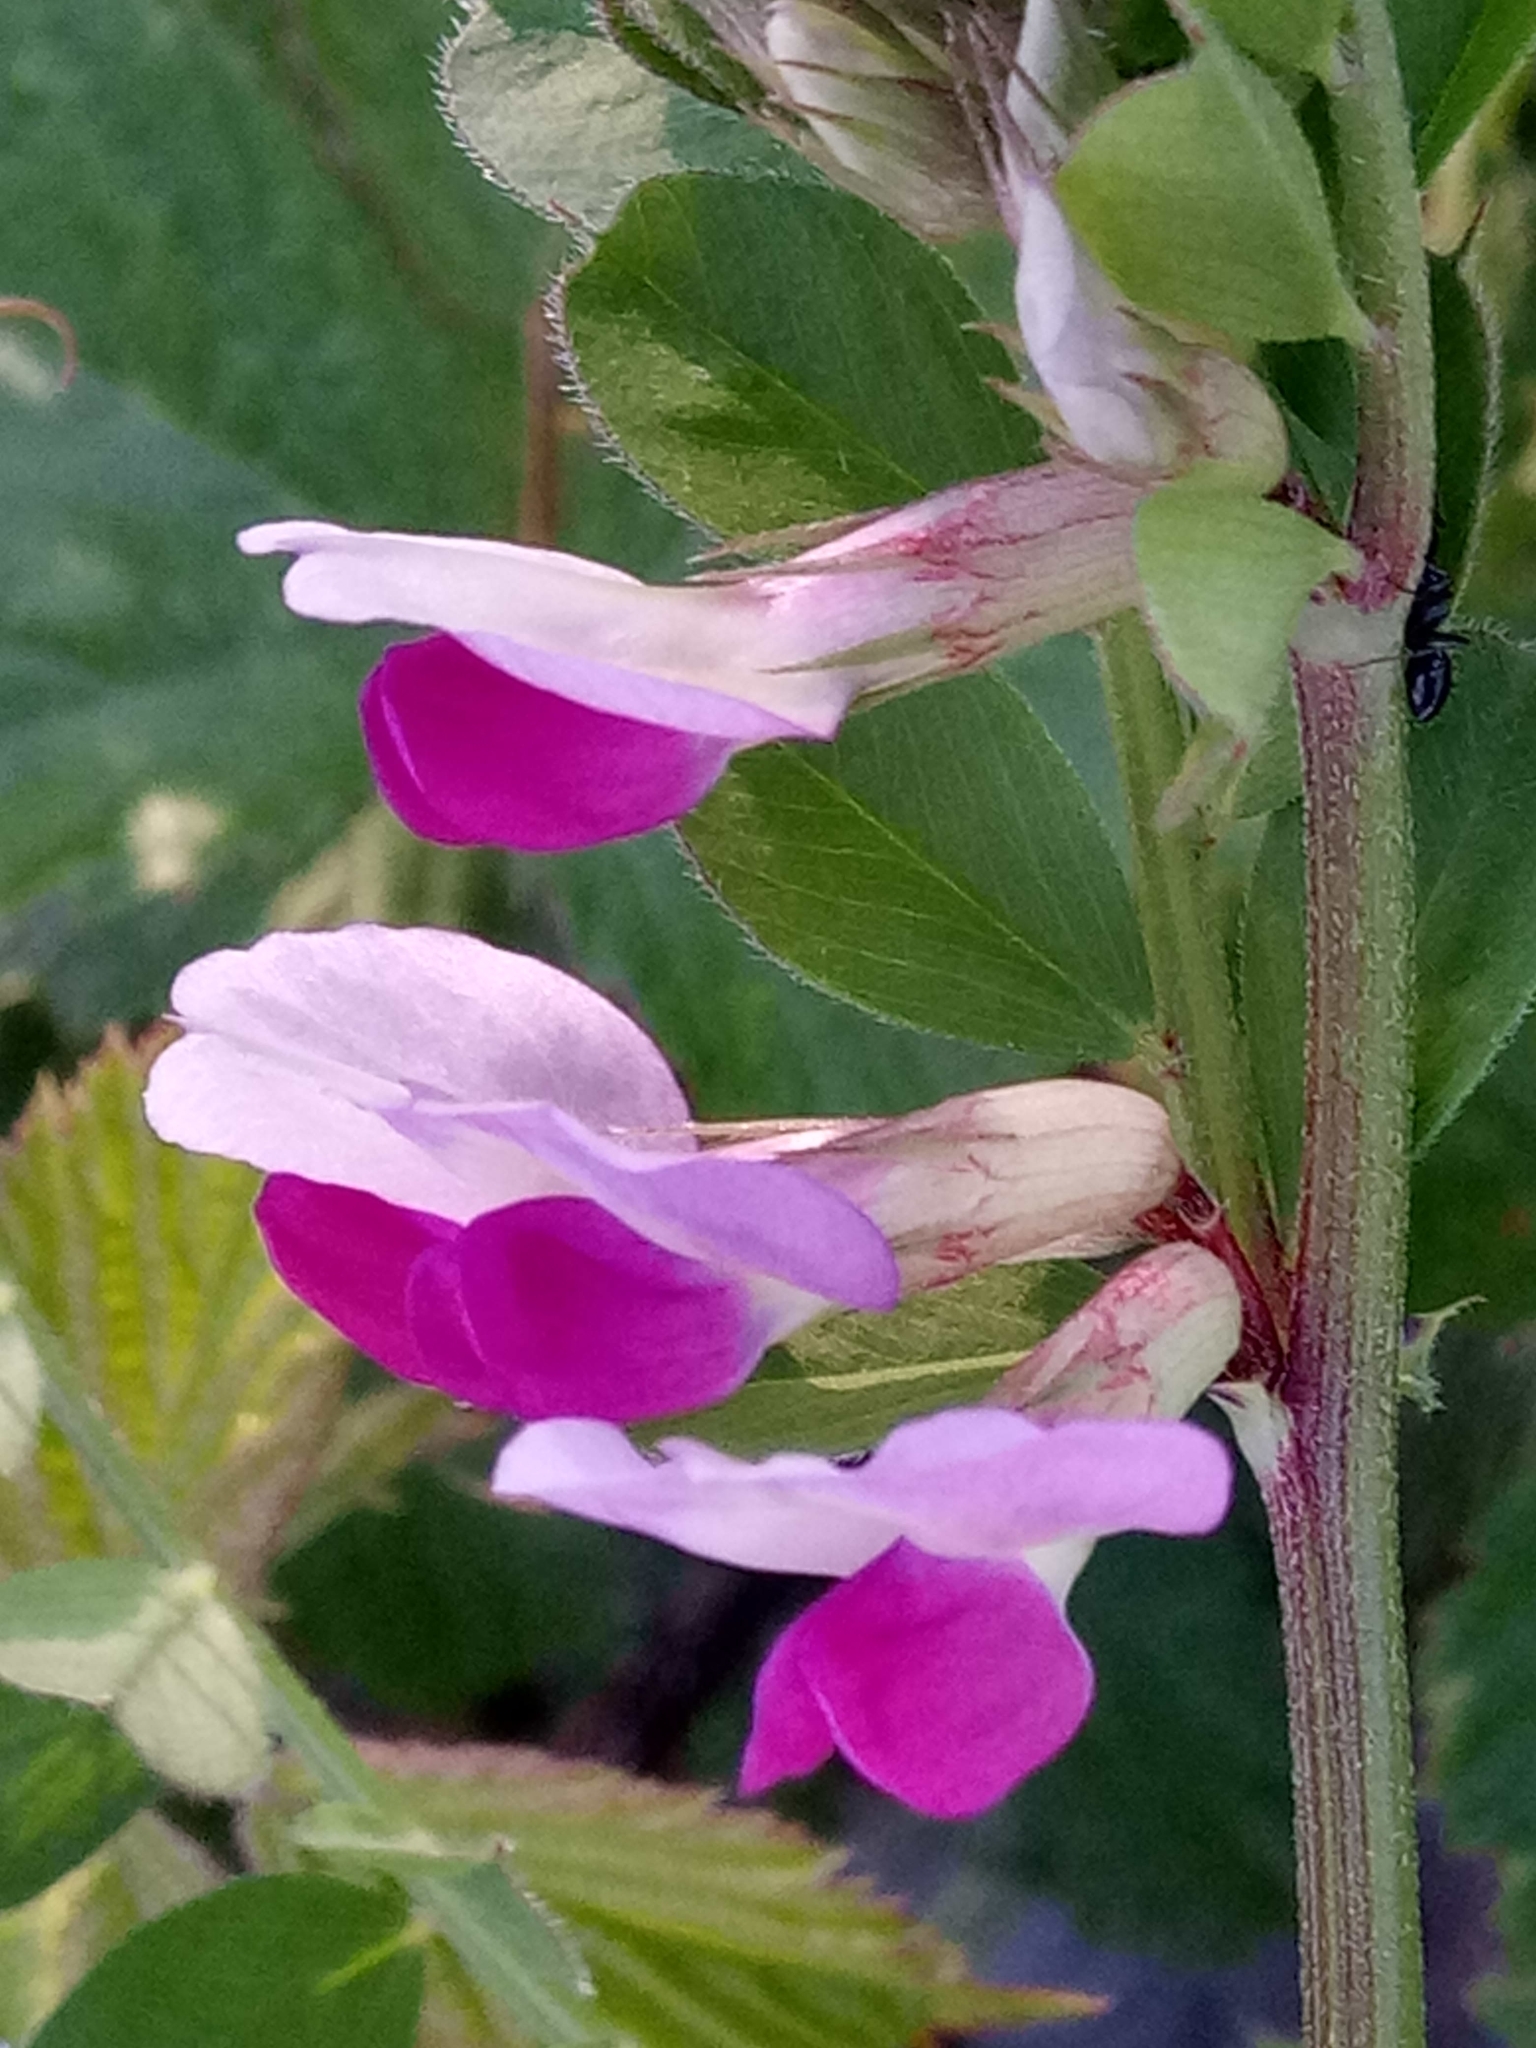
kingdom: Plantae
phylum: Tracheophyta
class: Magnoliopsida
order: Fabales
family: Fabaceae
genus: Vicia
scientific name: Vicia sativa
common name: Garden vetch
